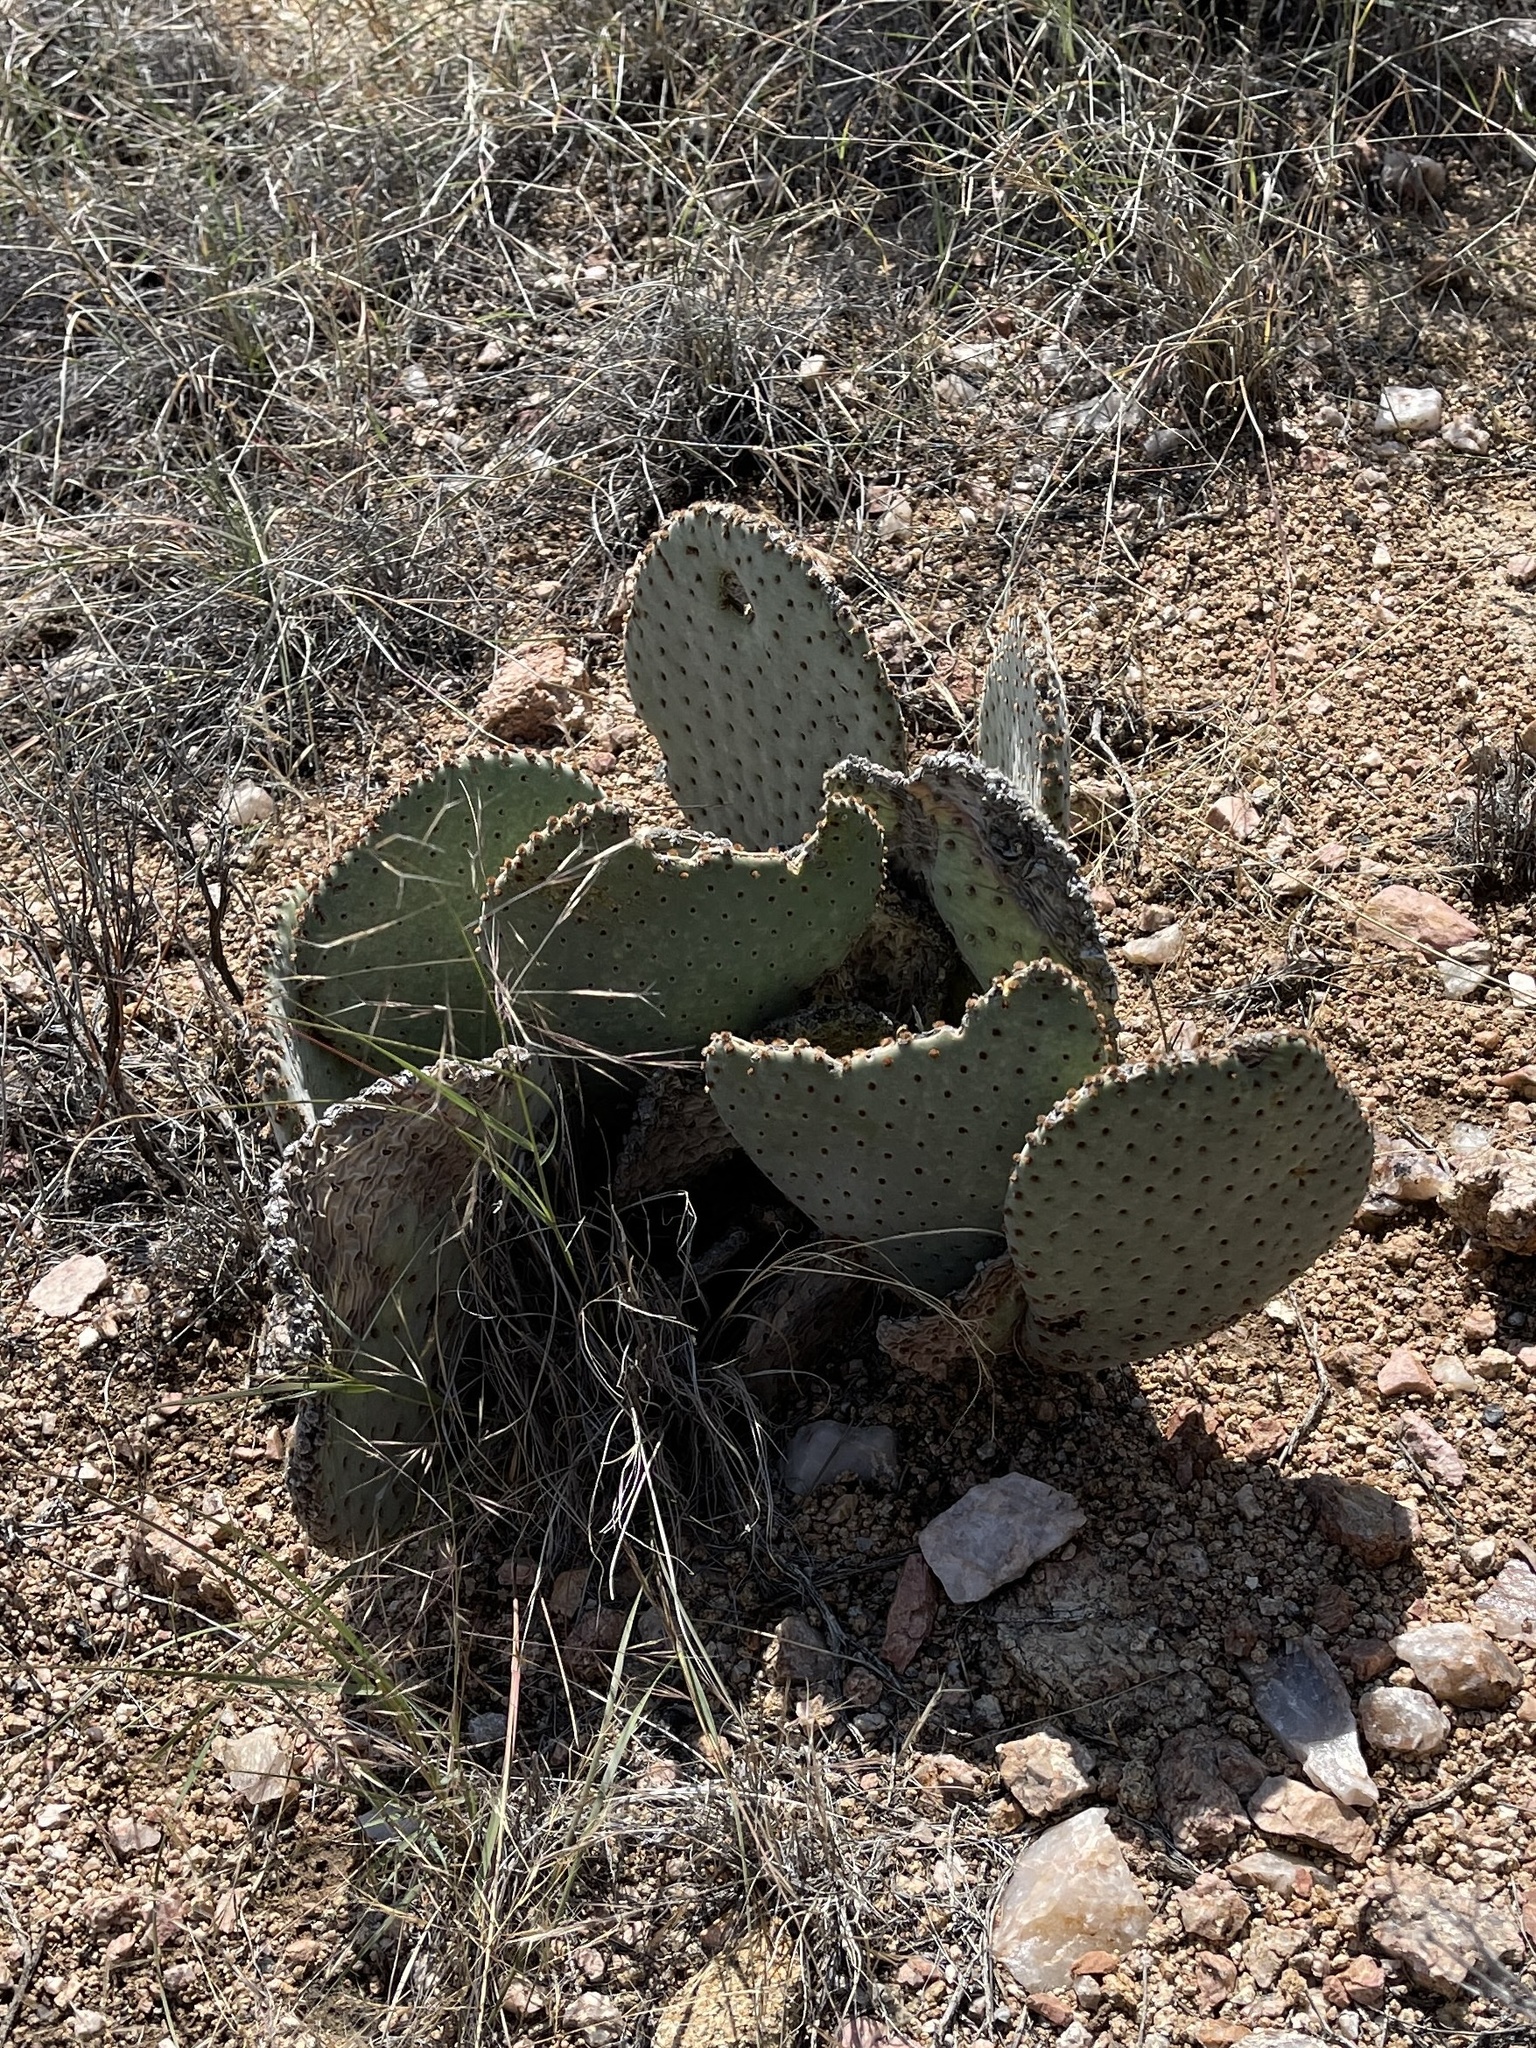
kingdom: Plantae
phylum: Tracheophyta
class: Magnoliopsida
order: Caryophyllales
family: Cactaceae
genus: Opuntia
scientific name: Opuntia basilaris
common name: Beavertail prickly-pear
